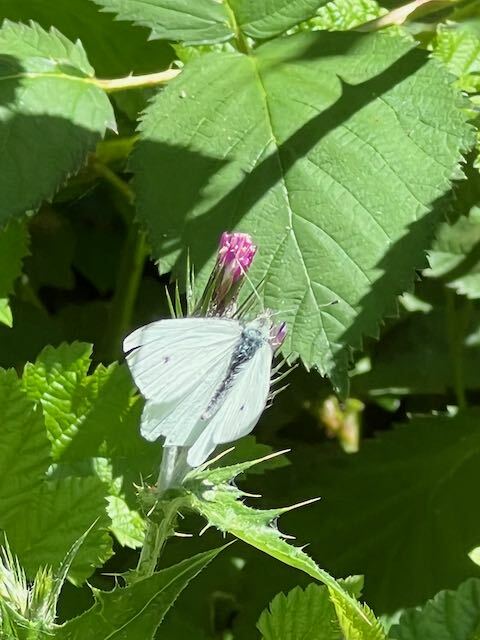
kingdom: Animalia
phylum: Arthropoda
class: Insecta
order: Lepidoptera
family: Pieridae
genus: Pieris
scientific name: Pieris rapae
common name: Small white
